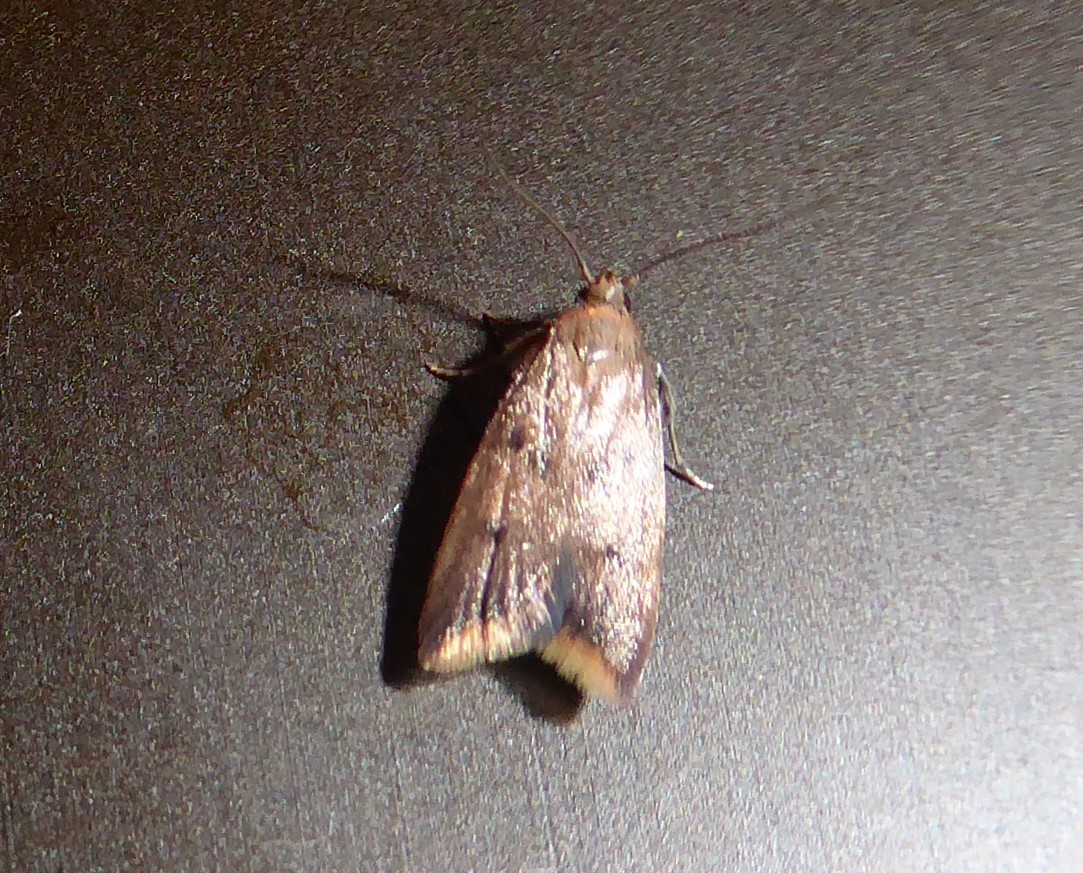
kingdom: Animalia
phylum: Arthropoda
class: Insecta
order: Lepidoptera
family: Oecophoridae
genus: Tachystola
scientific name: Tachystola acroxantha
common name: Ruddy streak
